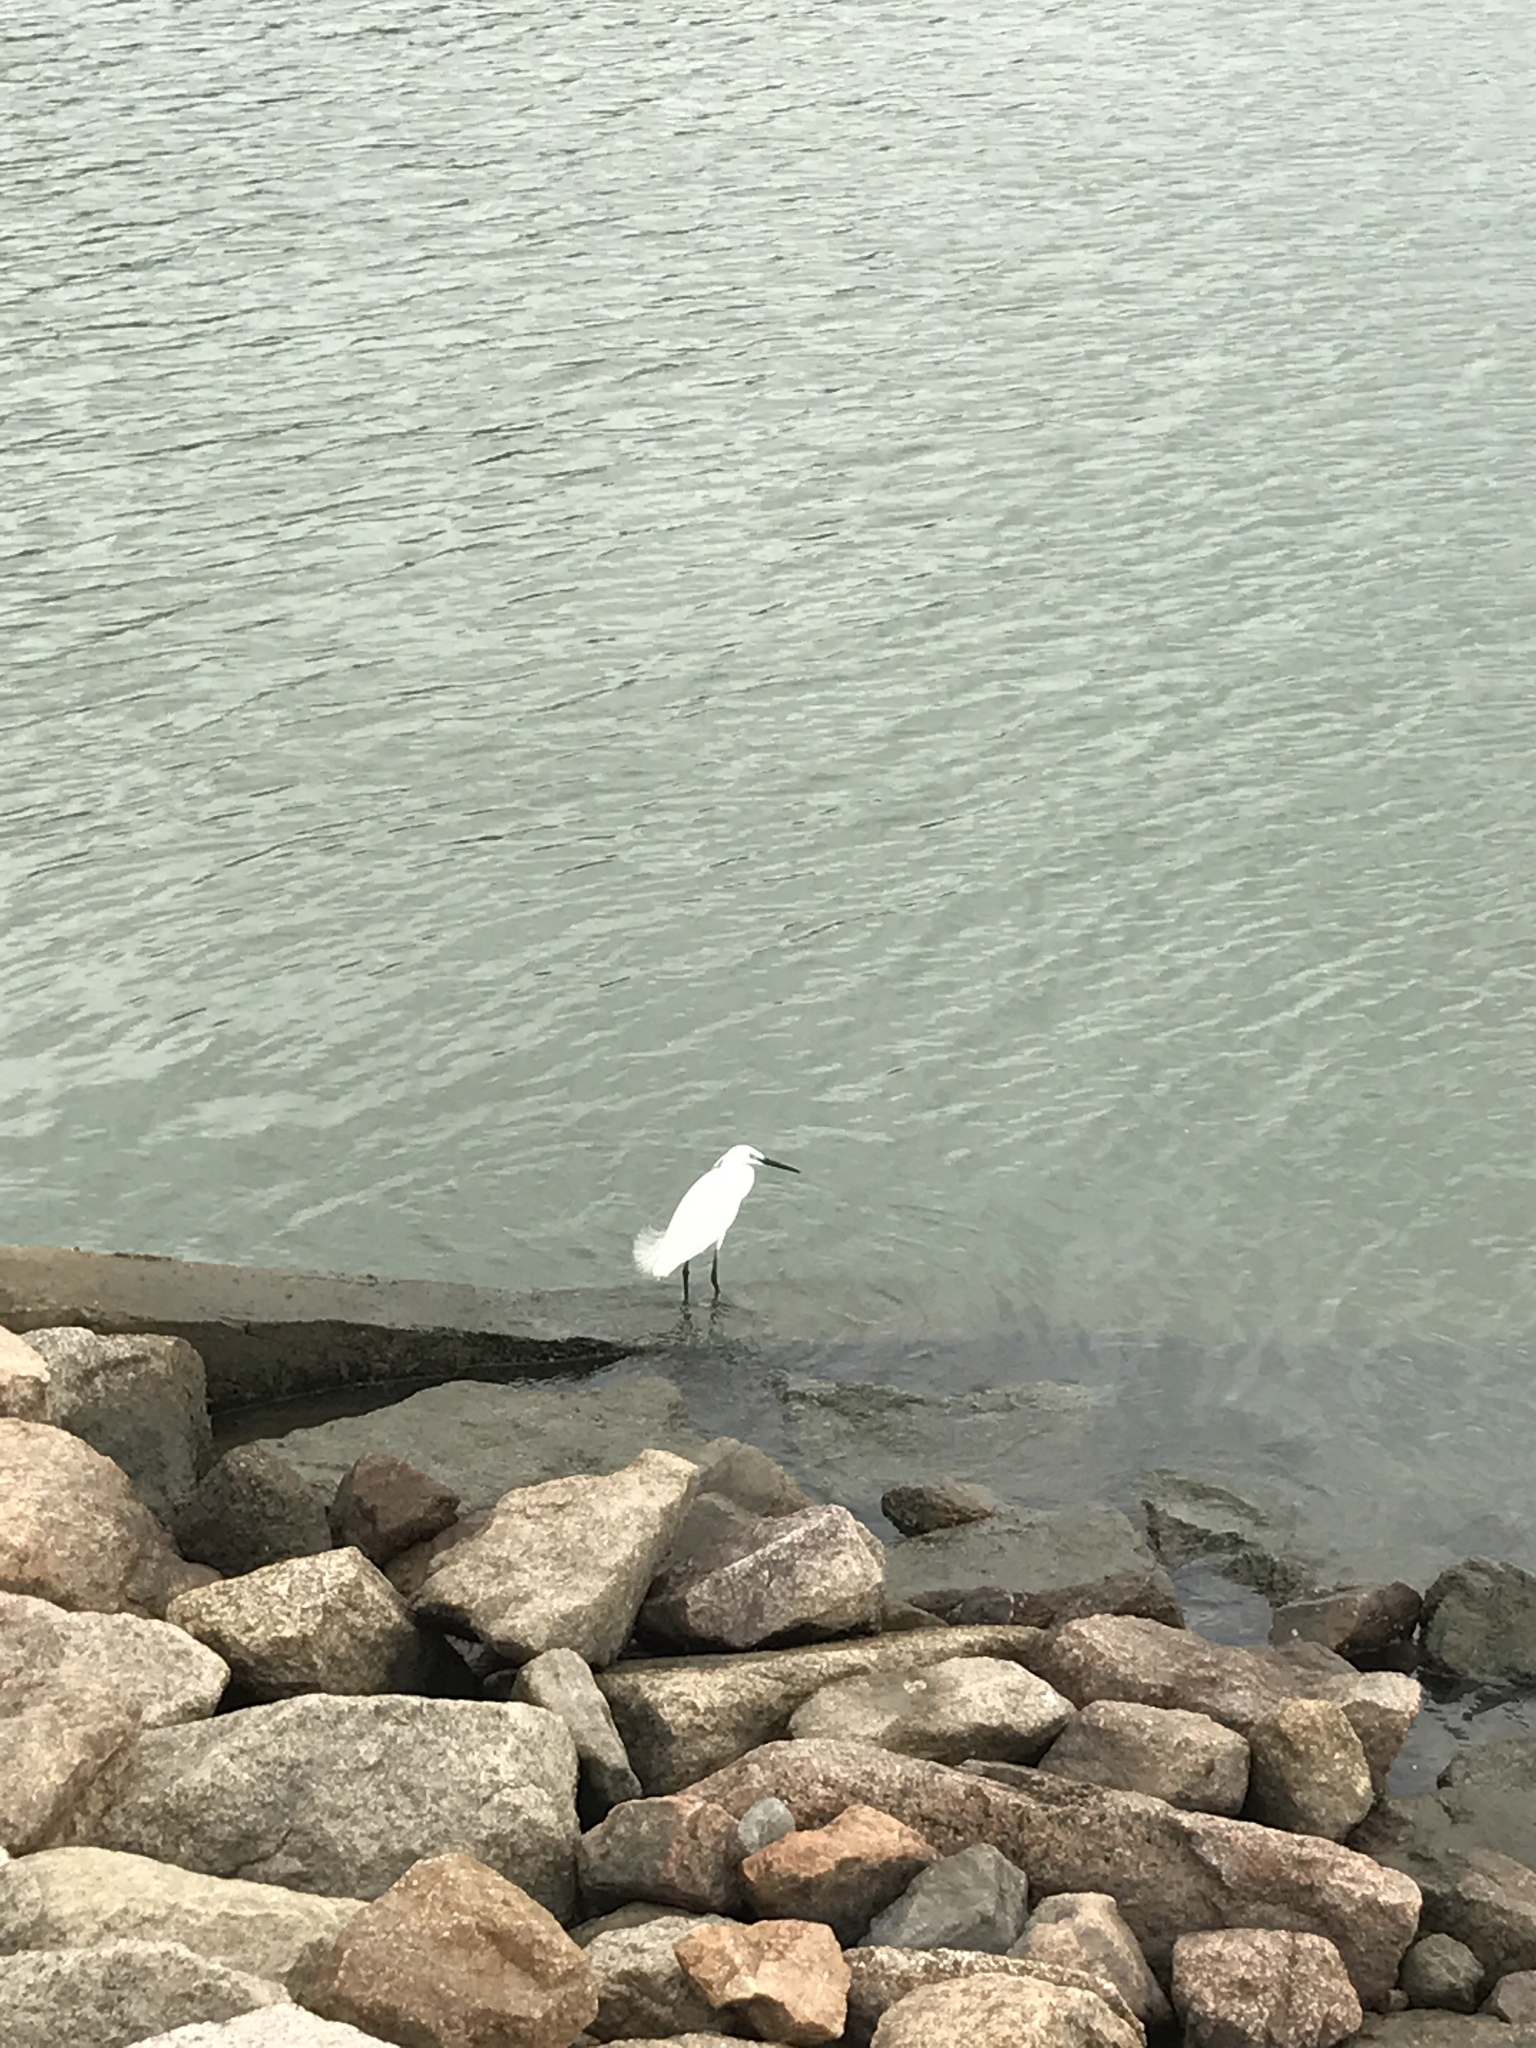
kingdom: Animalia
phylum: Chordata
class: Aves
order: Pelecaniformes
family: Ardeidae
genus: Egretta
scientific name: Egretta garzetta
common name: Little egret
